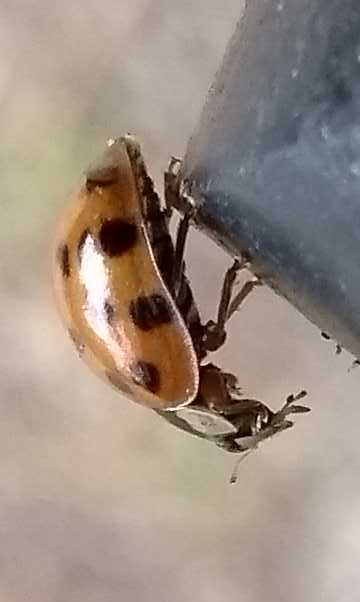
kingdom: Animalia
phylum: Arthropoda
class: Insecta
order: Coleoptera
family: Coccinellidae
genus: Harmonia
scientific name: Harmonia axyridis
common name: Harlequin ladybird
